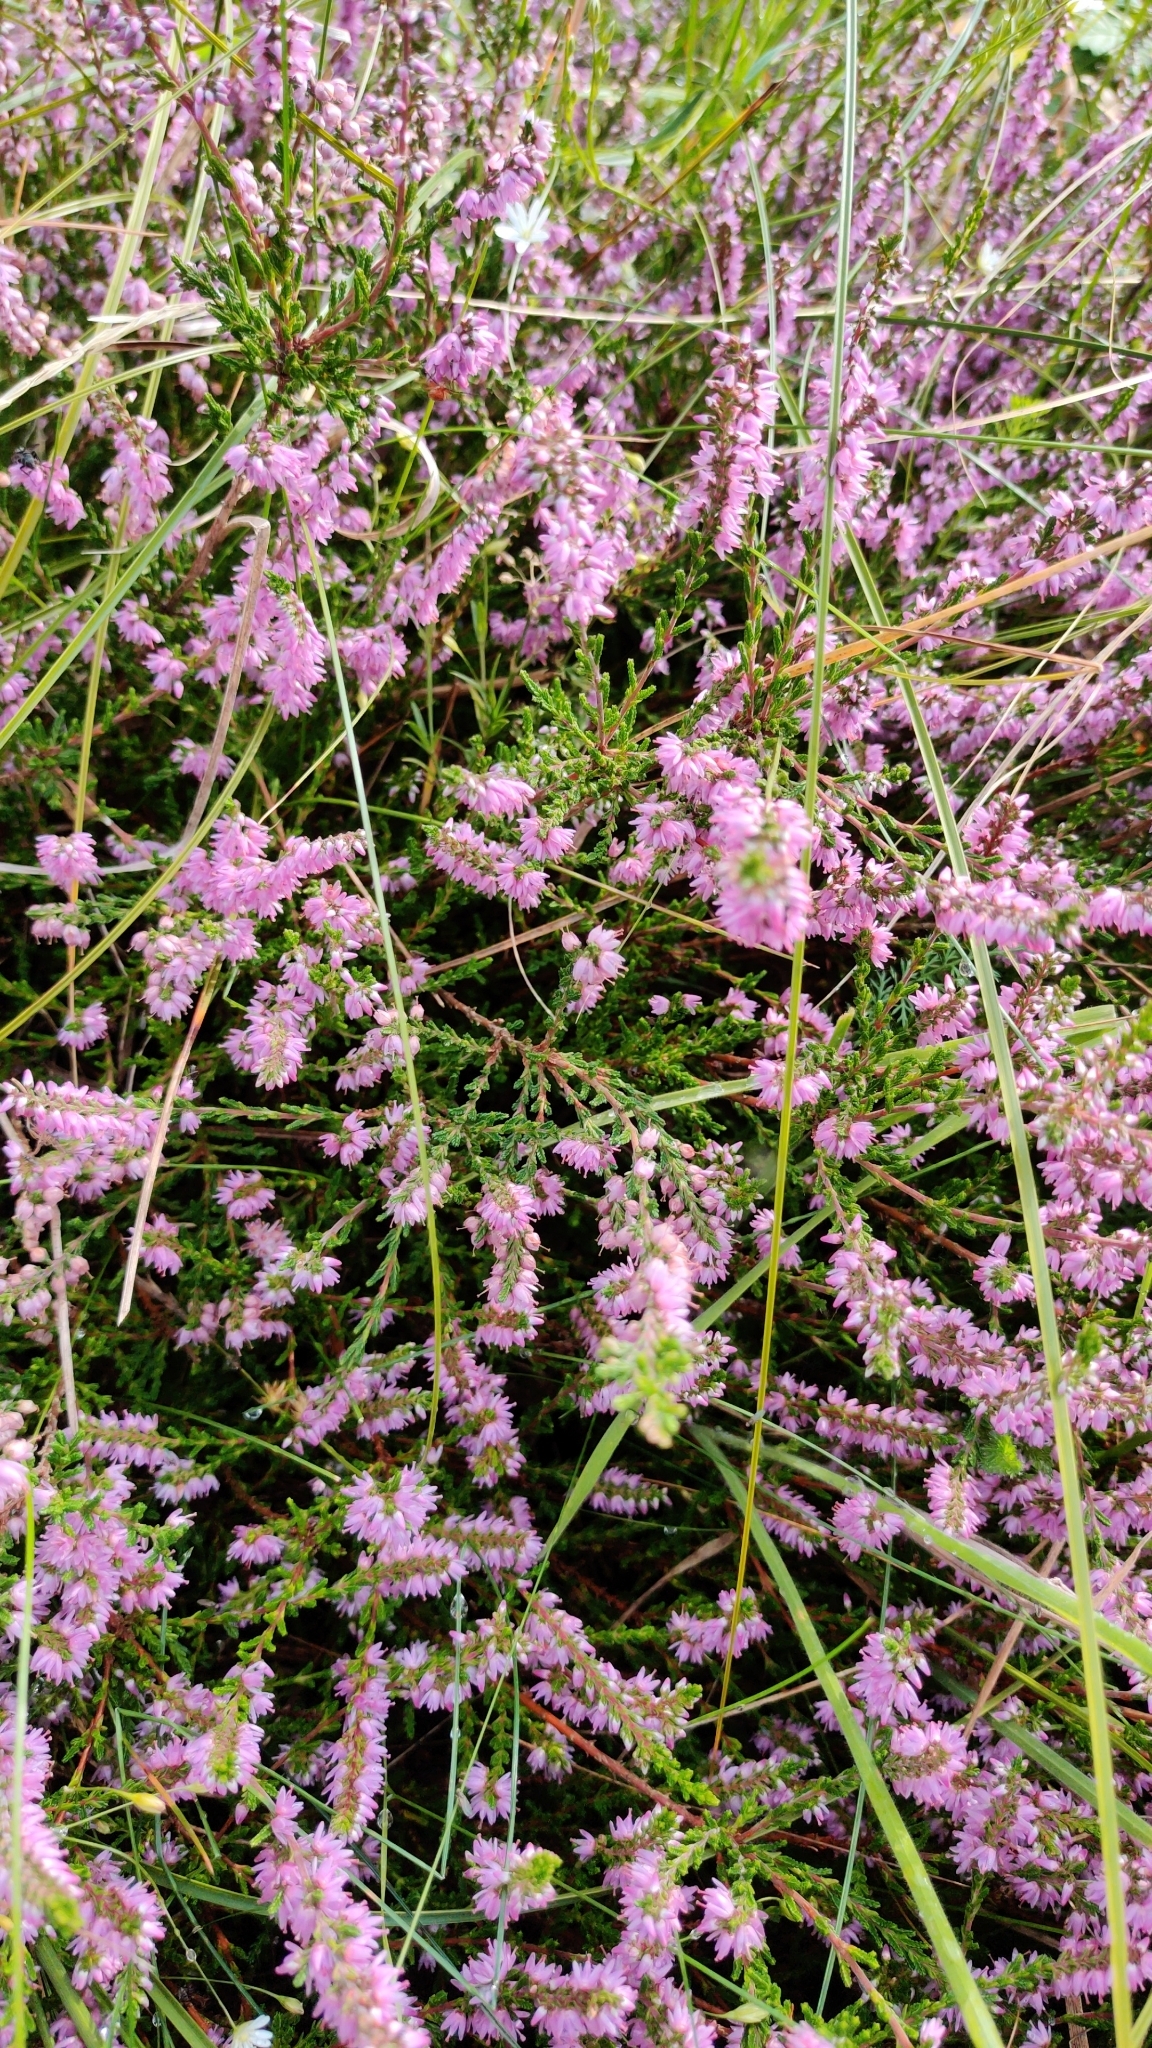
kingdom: Plantae
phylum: Tracheophyta
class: Magnoliopsida
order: Ericales
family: Ericaceae
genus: Calluna
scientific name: Calluna vulgaris
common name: Heather
